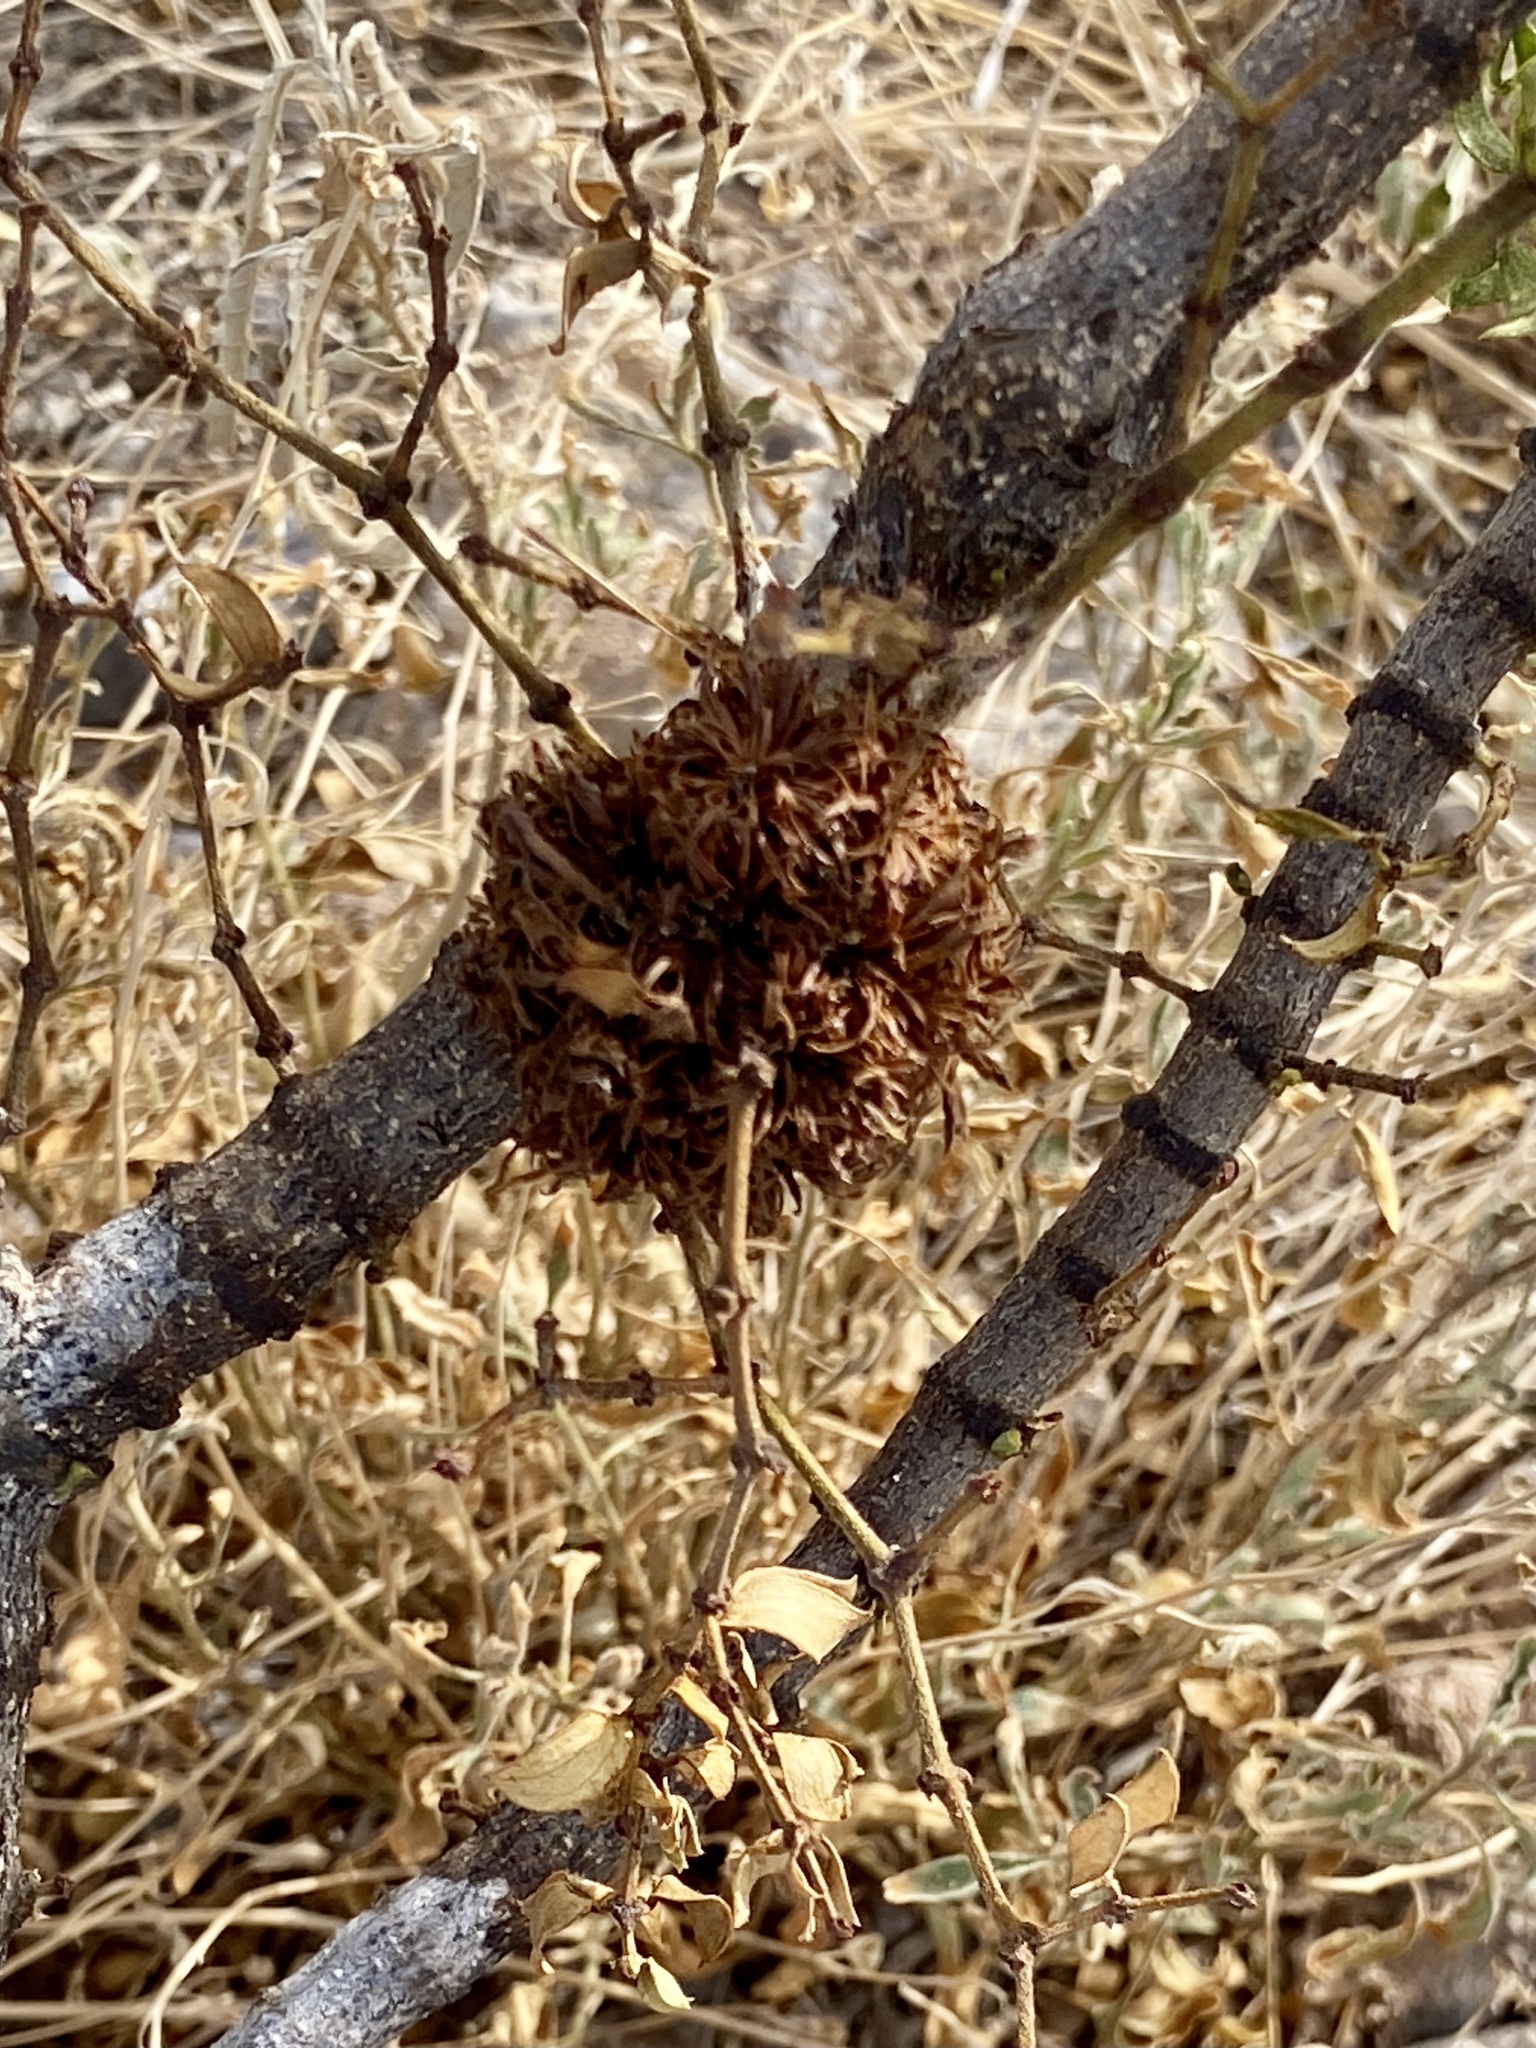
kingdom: Animalia
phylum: Arthropoda
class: Insecta
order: Diptera
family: Cecidomyiidae
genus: Asphondylia
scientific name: Asphondylia auripila
